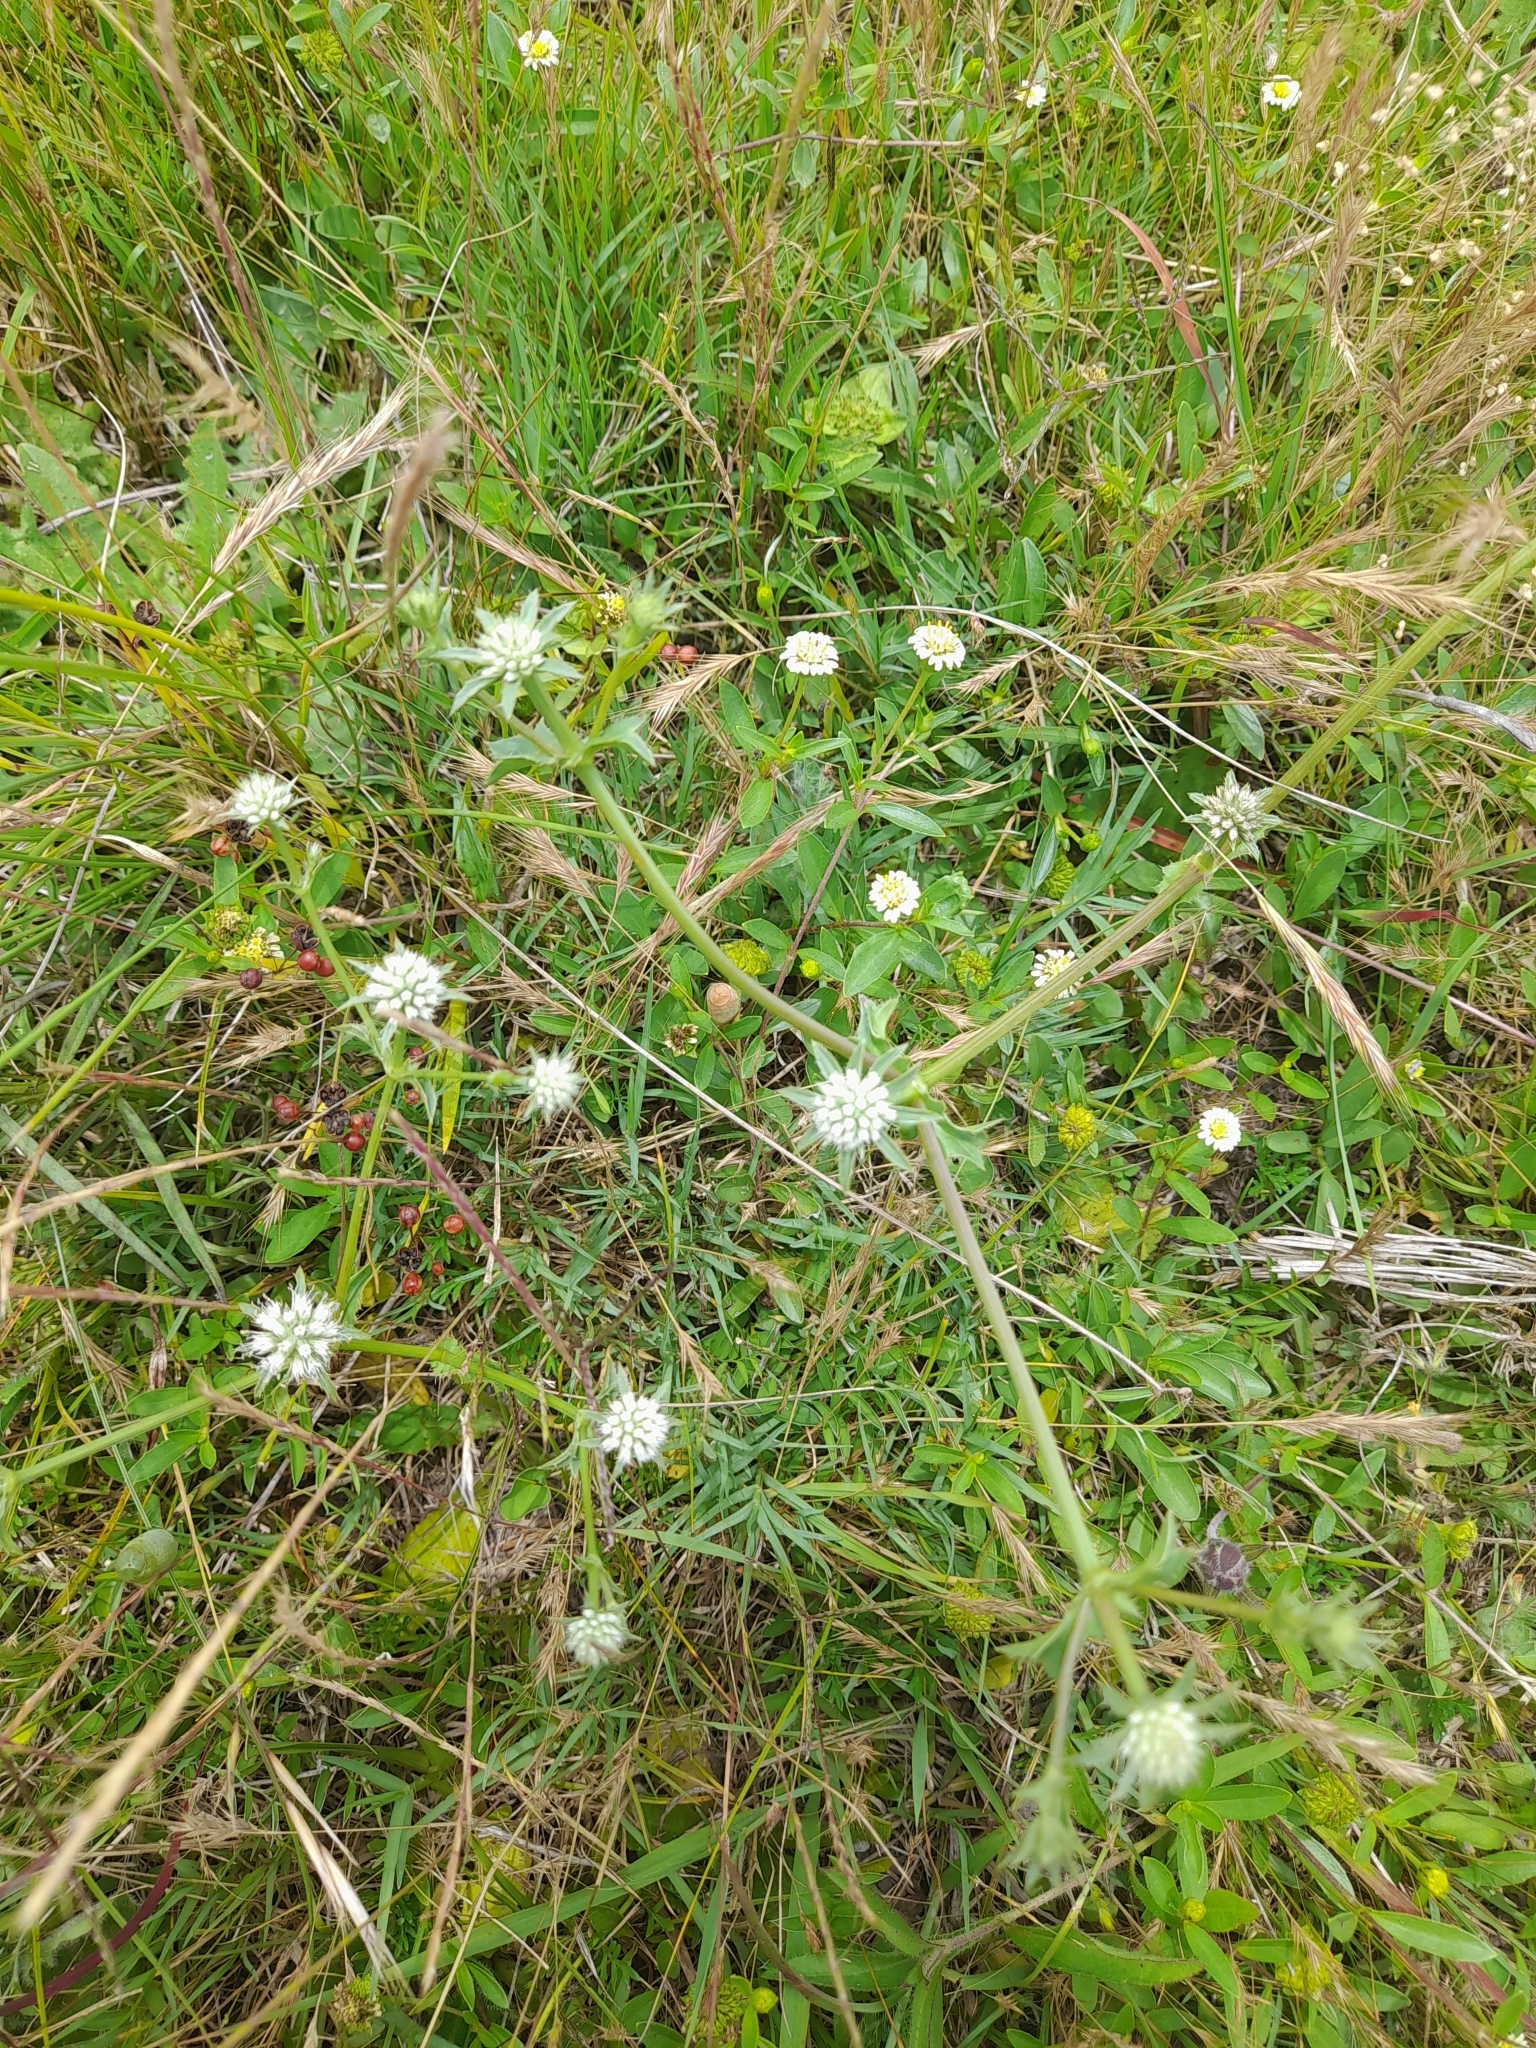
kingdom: Plantae
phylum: Tracheophyta
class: Magnoliopsida
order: Apiales
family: Apiaceae
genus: Eryngium
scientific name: Eryngium nudicaule
